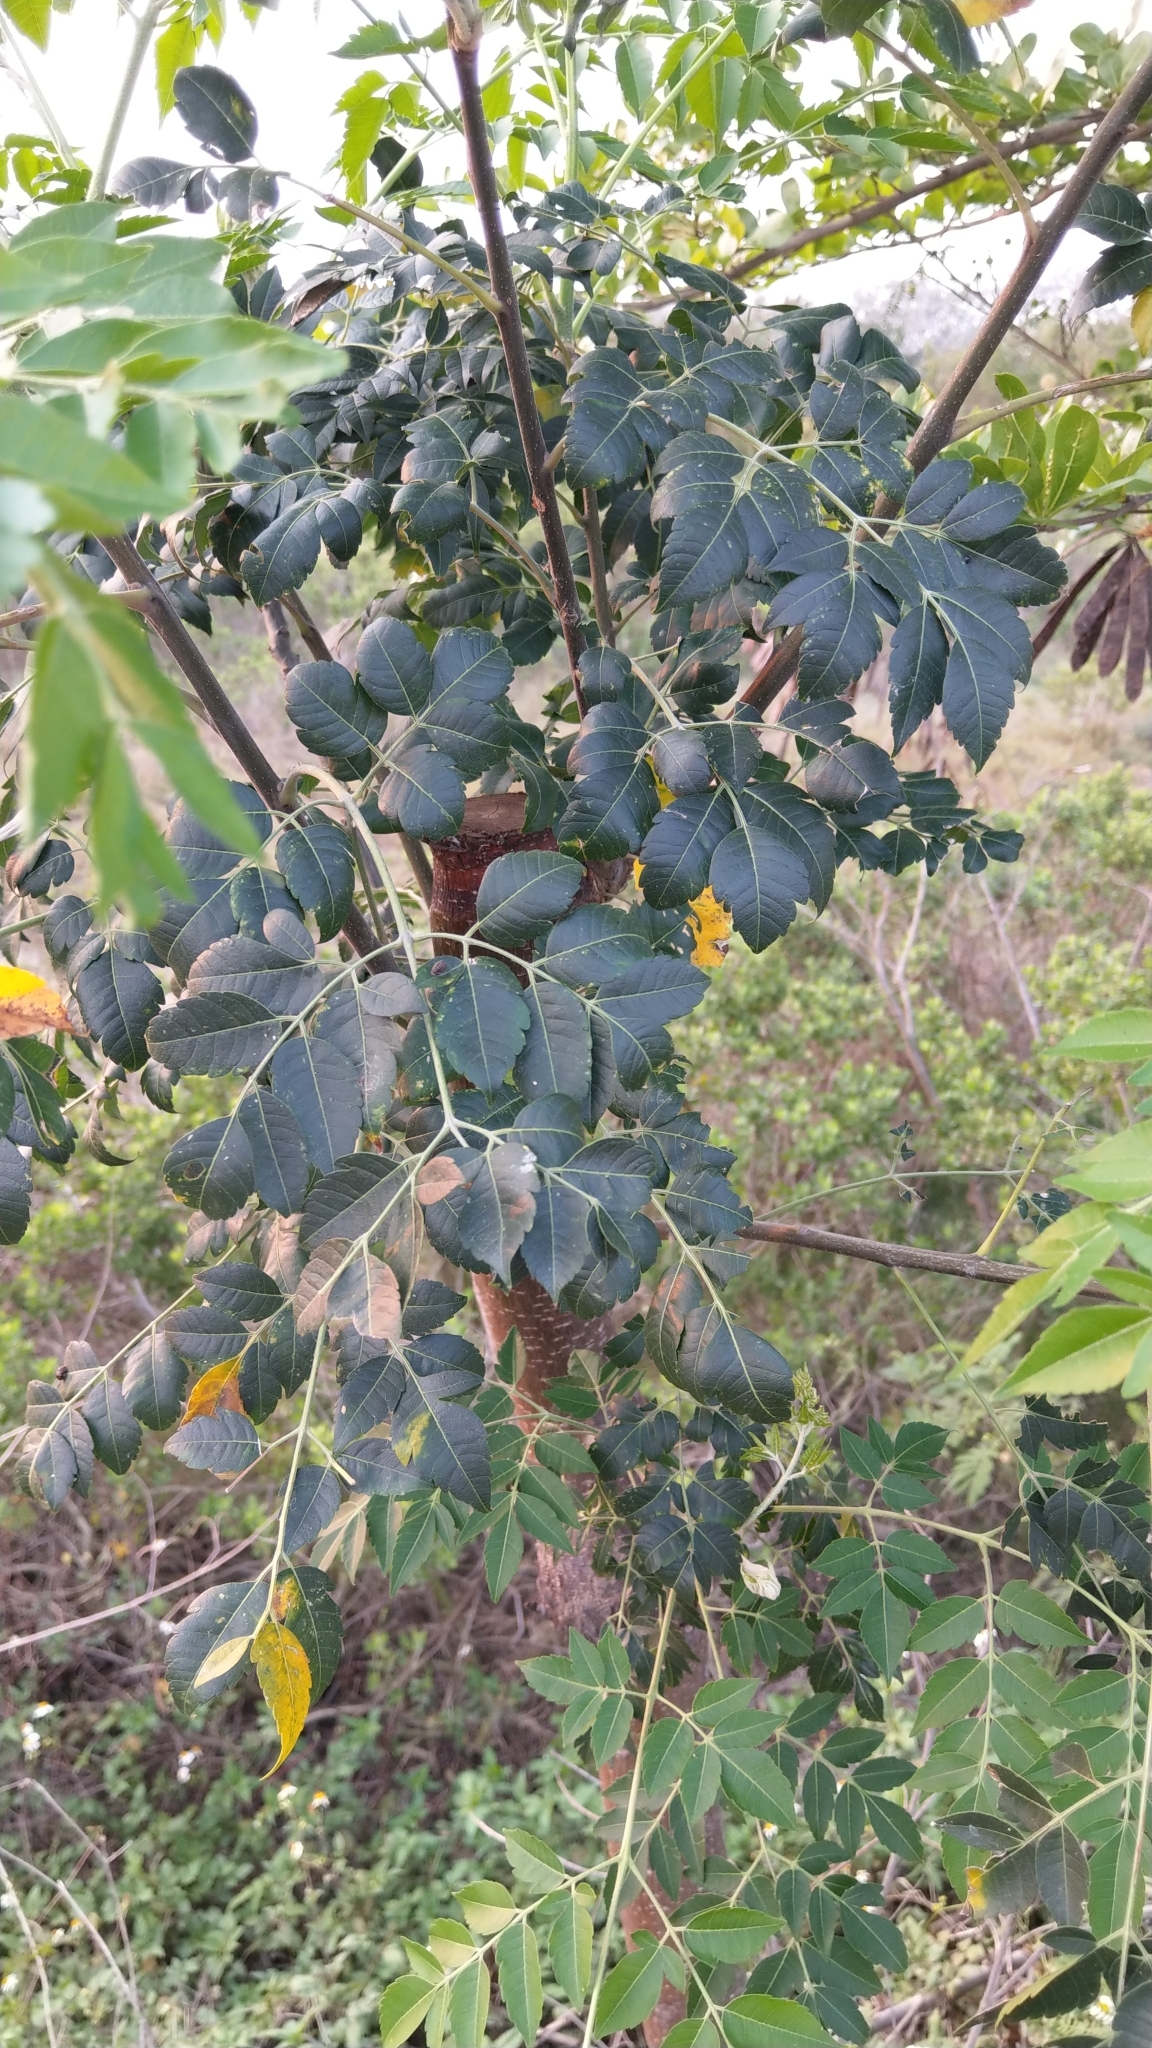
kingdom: Plantae
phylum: Tracheophyta
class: Magnoliopsida
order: Sapindales
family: Meliaceae
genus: Melia
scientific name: Melia azedarach
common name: Chinaberrytree
